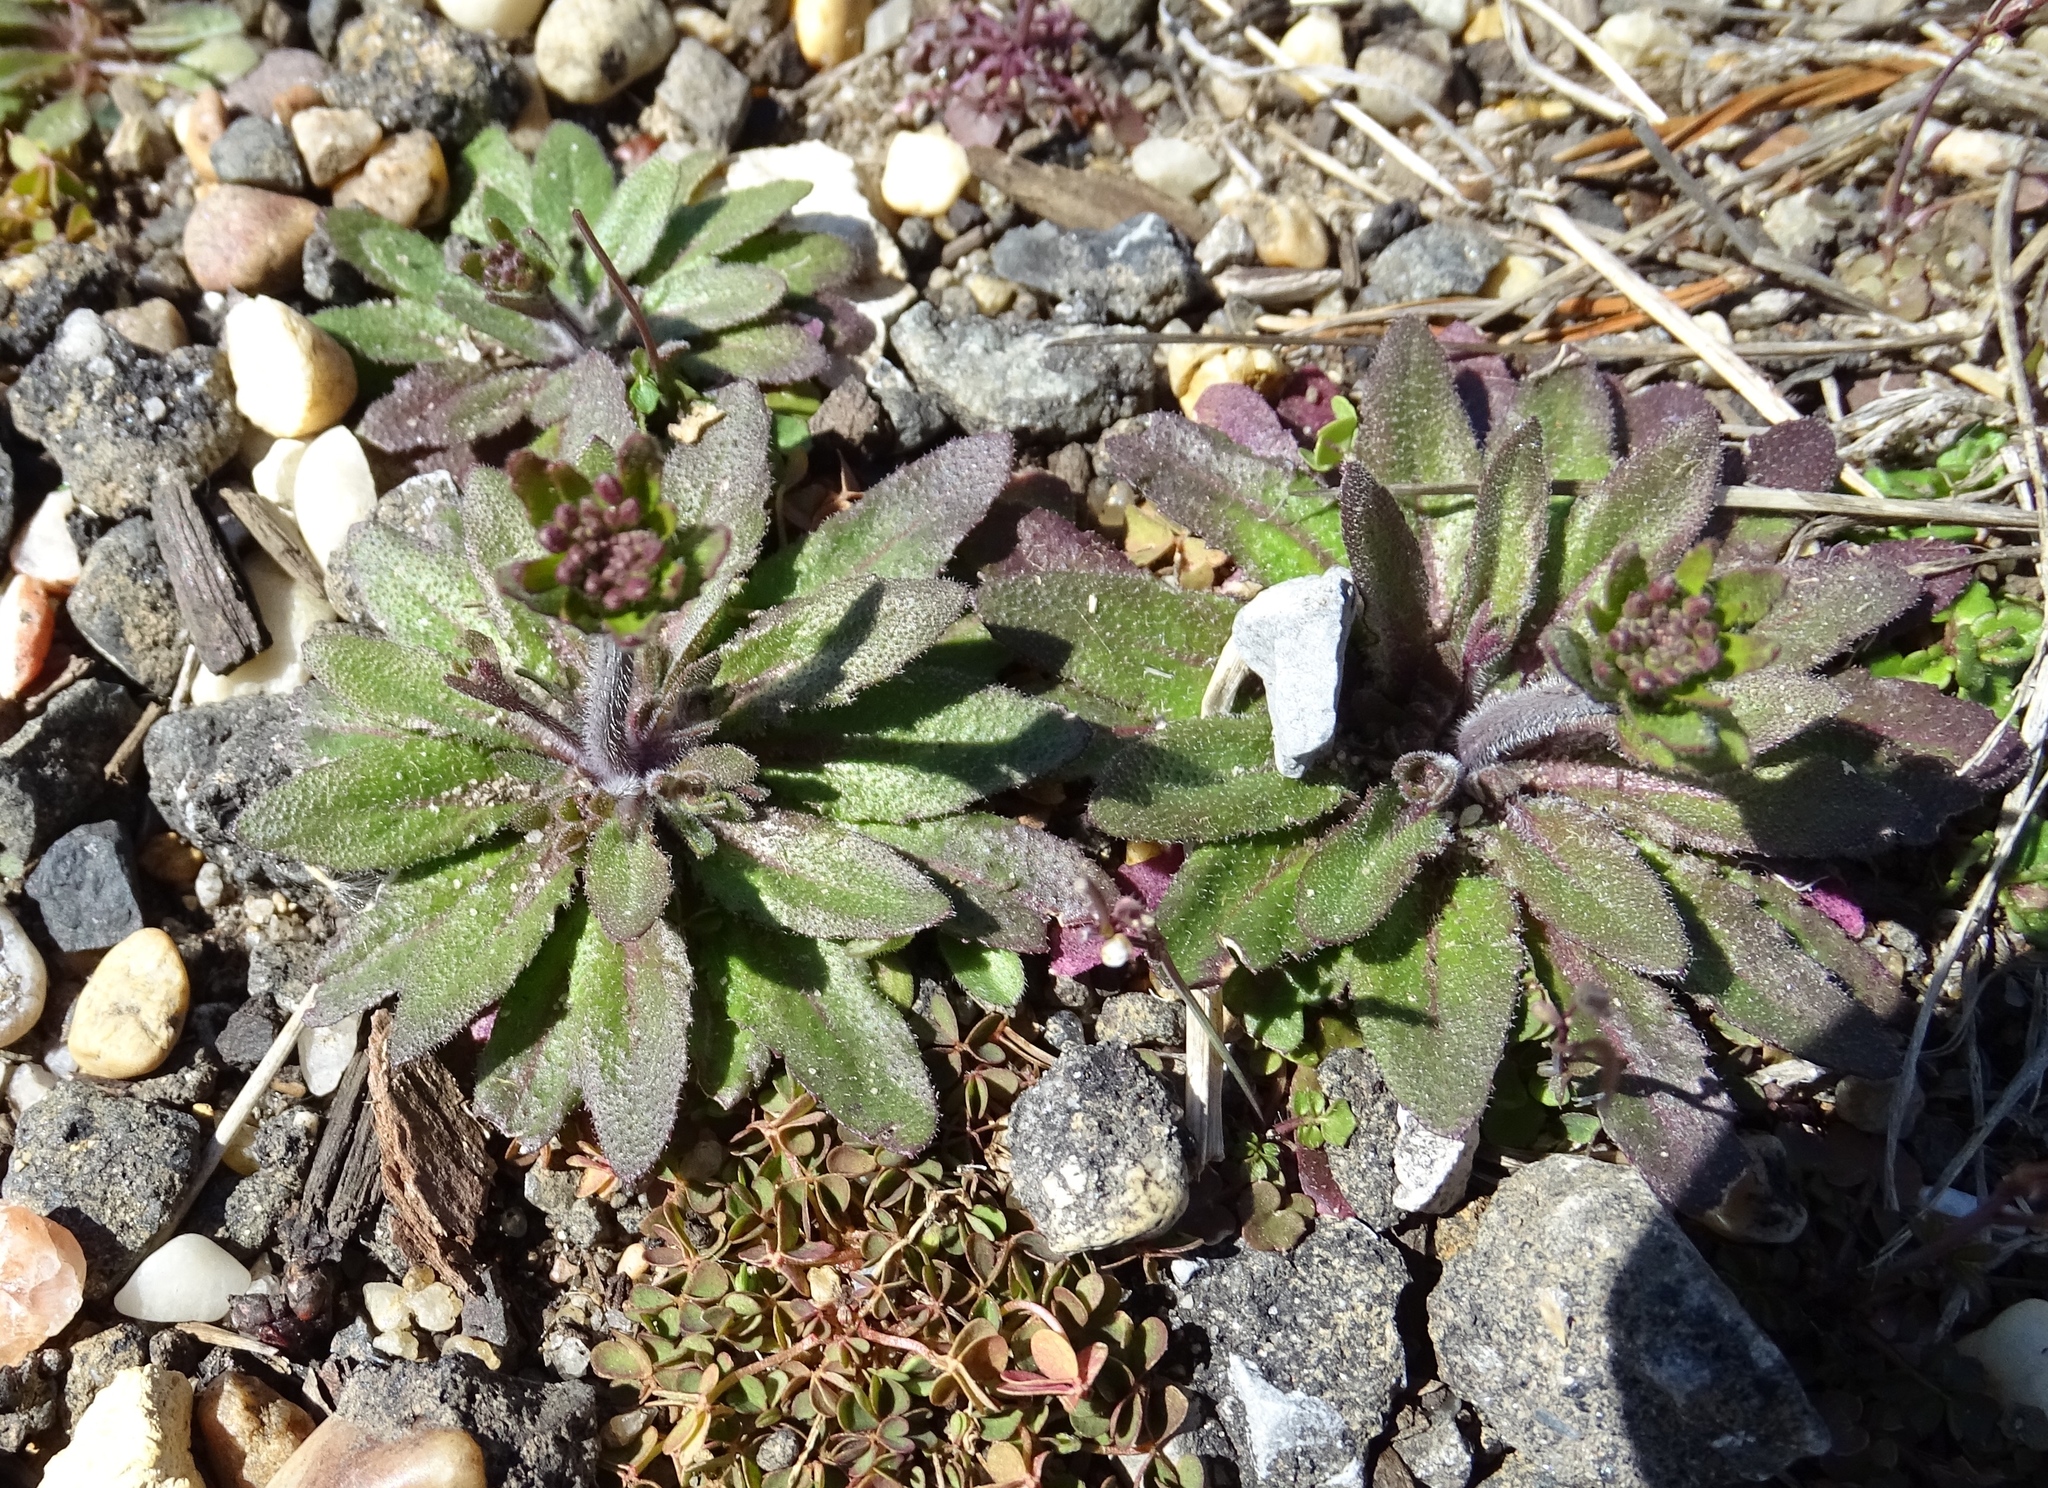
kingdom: Plantae
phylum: Tracheophyta
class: Magnoliopsida
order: Brassicales
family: Brassicaceae
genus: Draba
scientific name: Draba verna
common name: Spring draba
